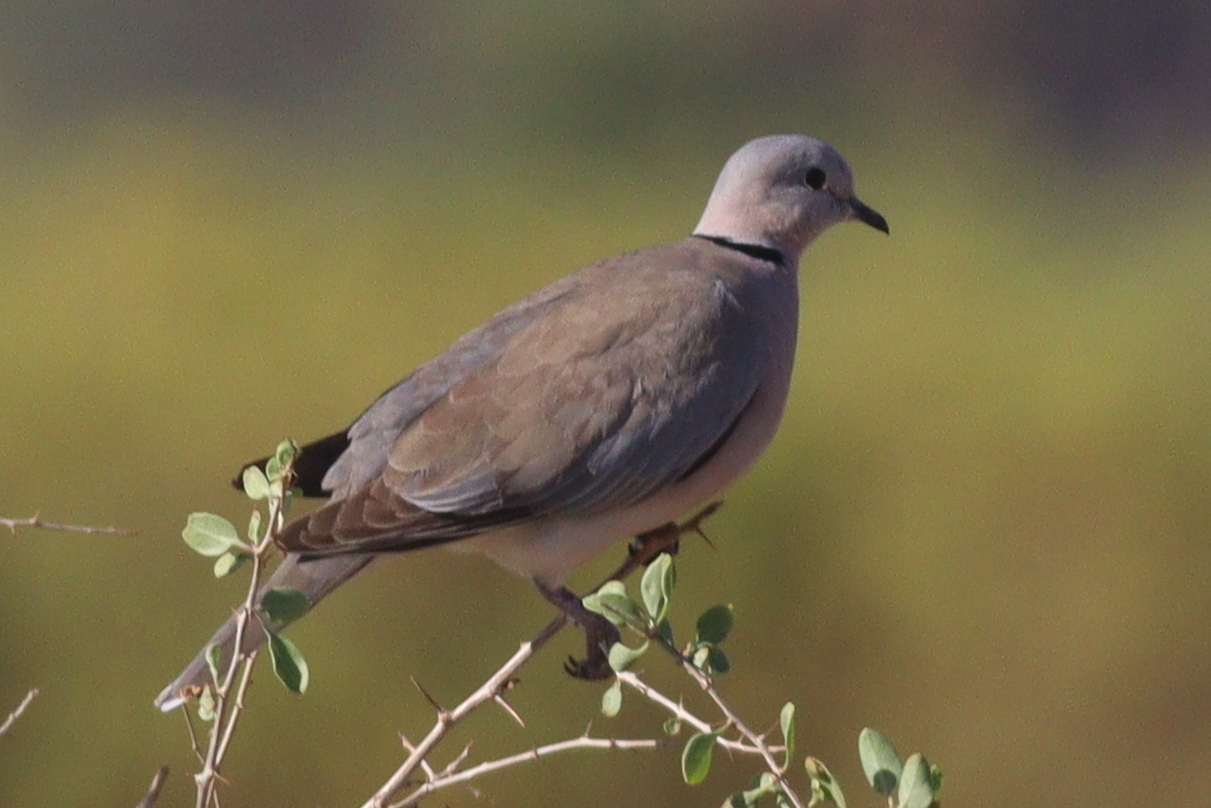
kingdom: Animalia
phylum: Chordata
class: Aves
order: Columbiformes
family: Columbidae
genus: Streptopelia
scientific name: Streptopelia capicola
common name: Ring-necked dove
